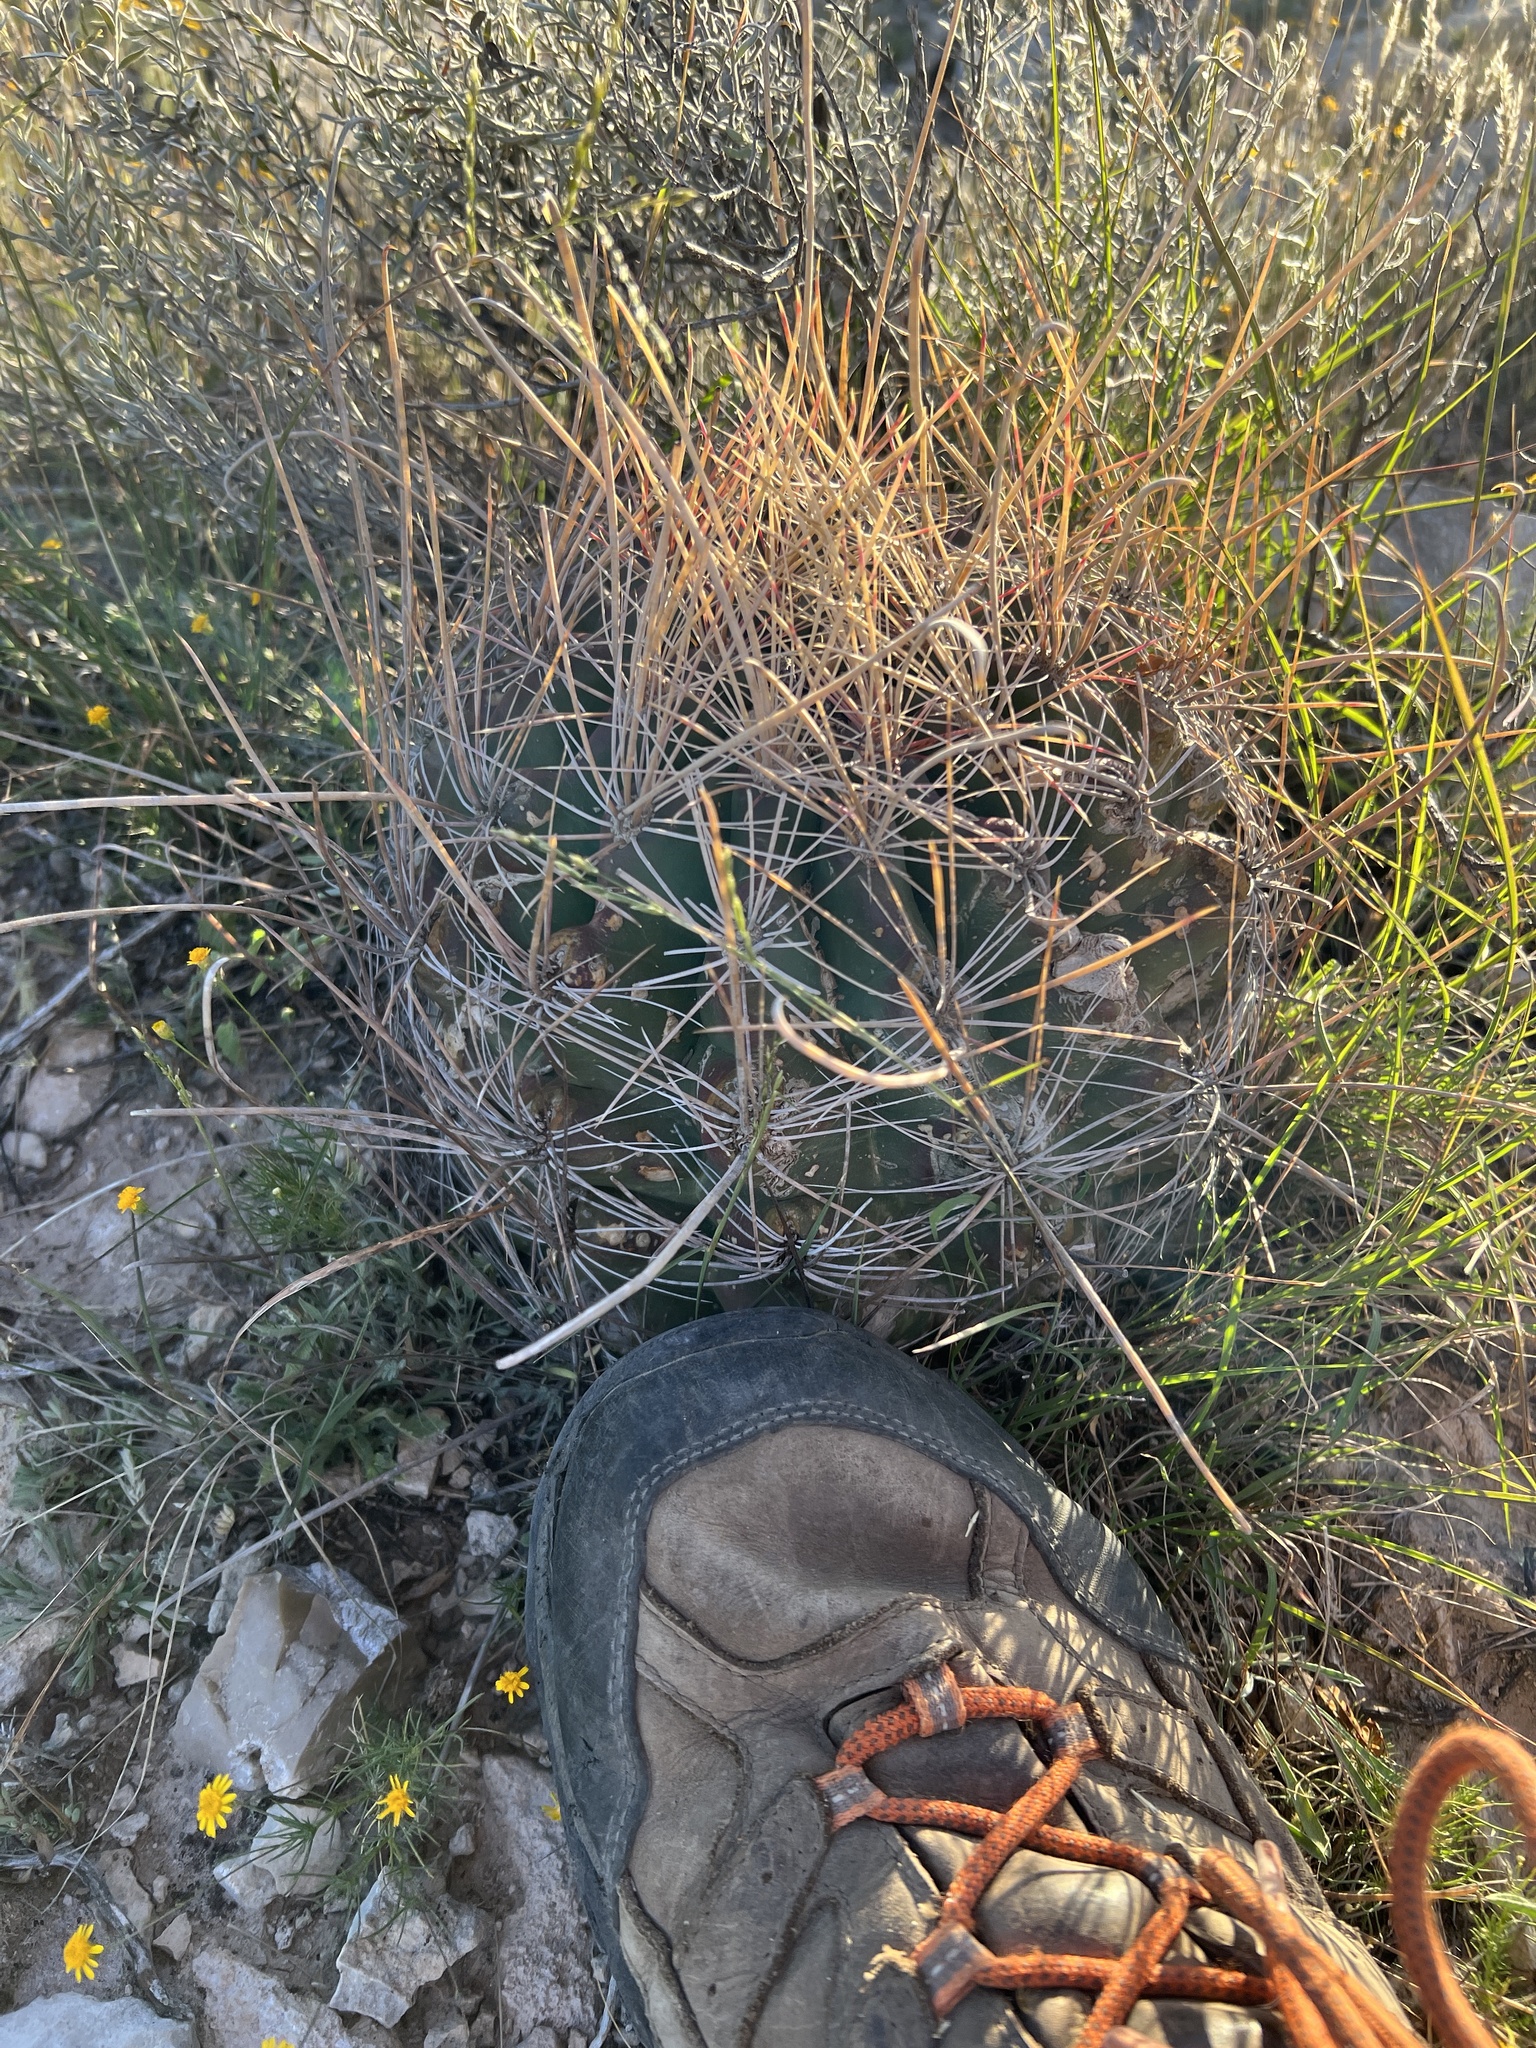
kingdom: Plantae
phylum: Tracheophyta
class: Magnoliopsida
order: Caryophyllales
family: Cactaceae
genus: Bisnaga
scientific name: Bisnaga hamatacantha
